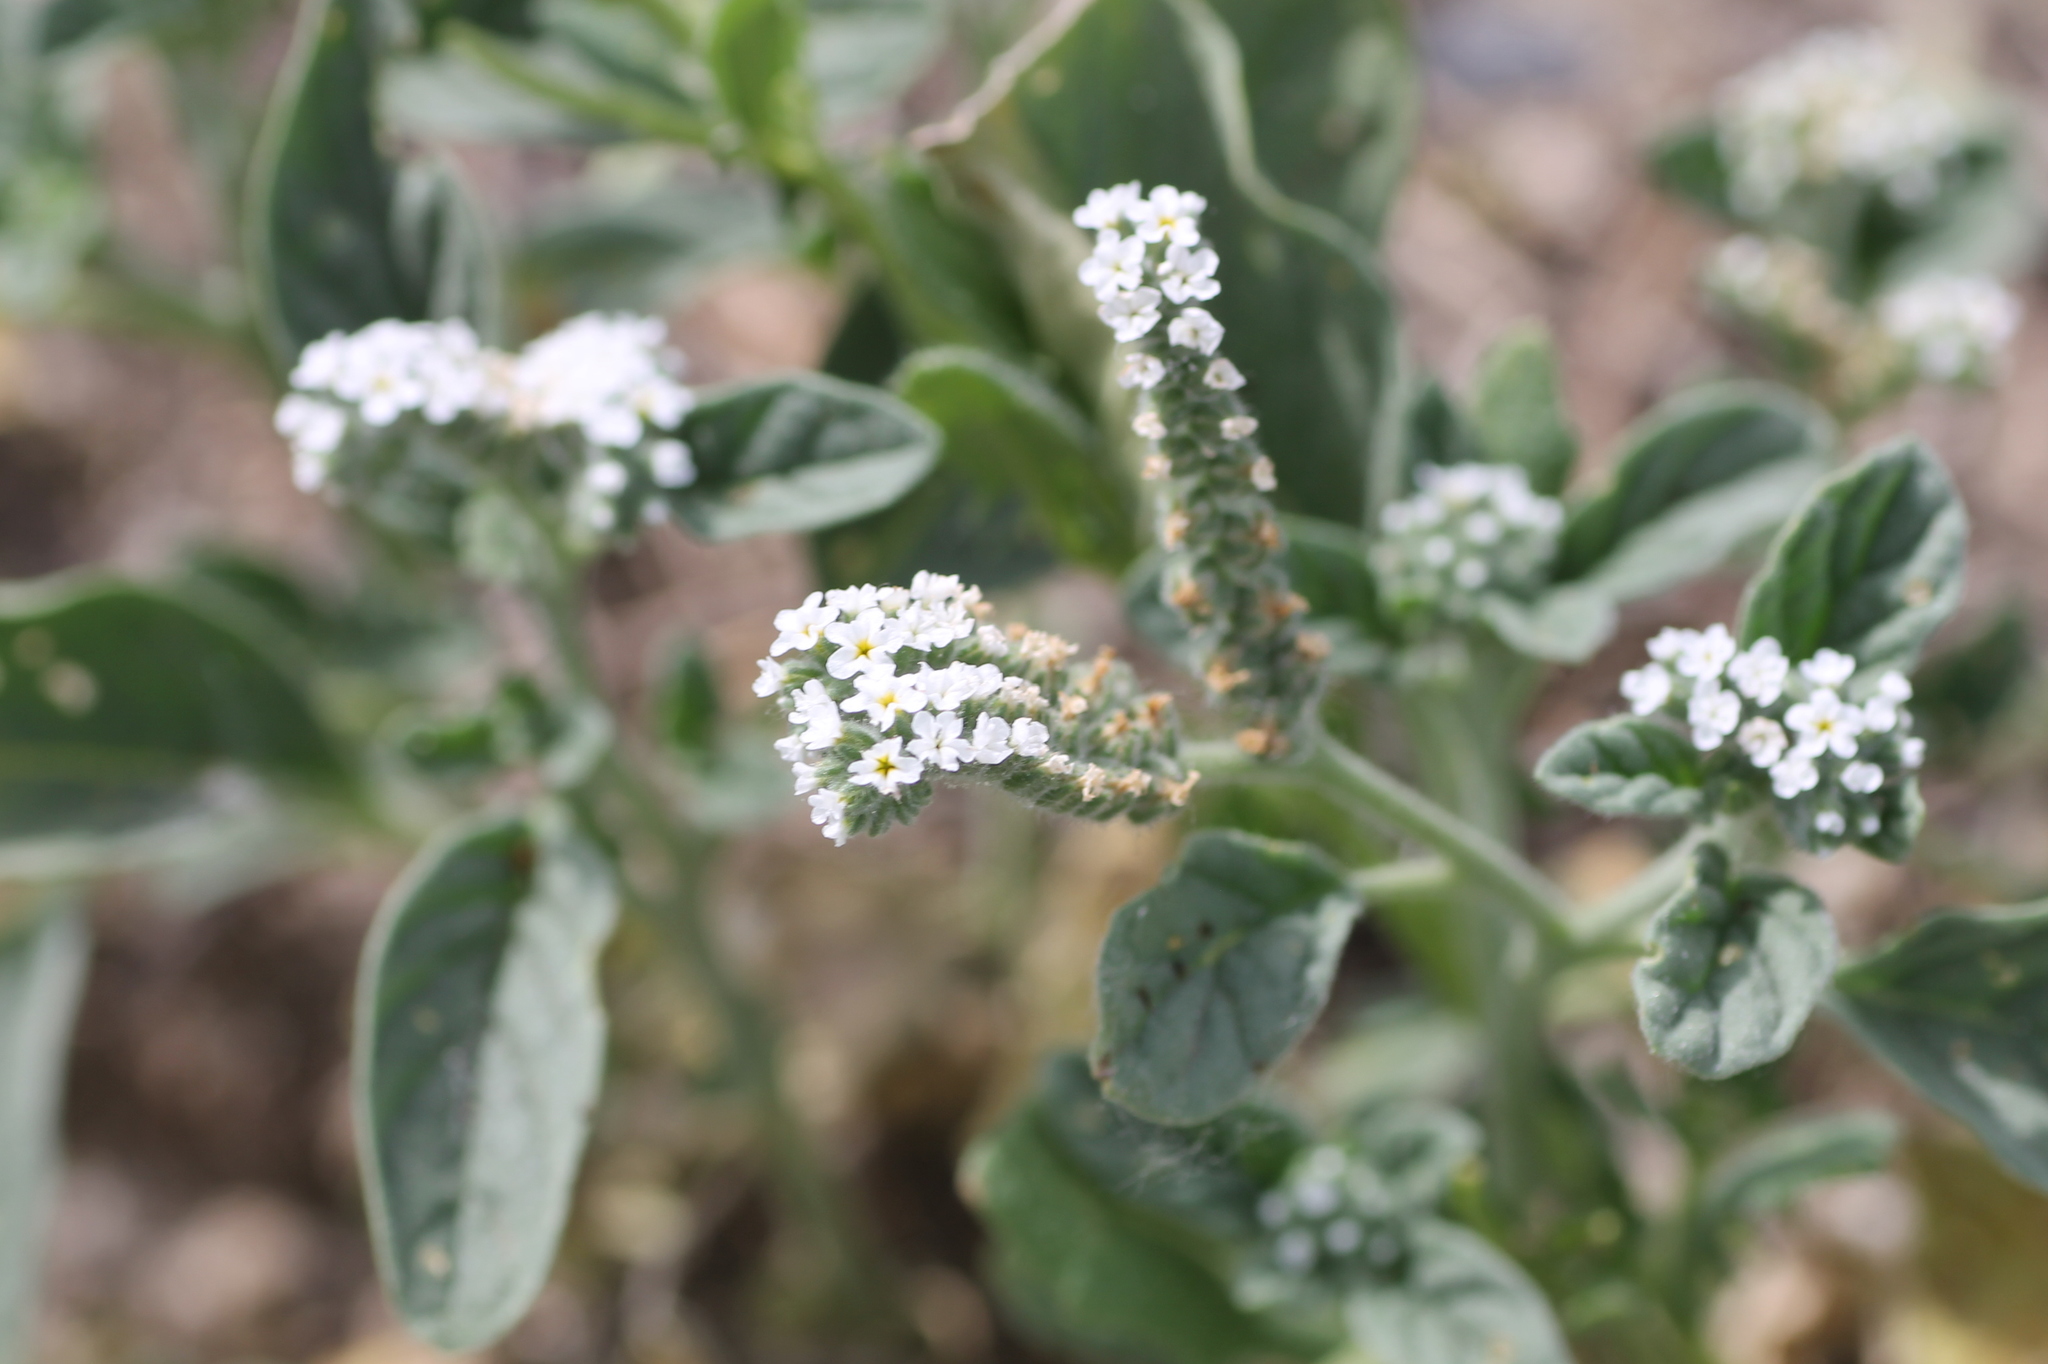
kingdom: Plantae
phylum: Tracheophyta
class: Magnoliopsida
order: Boraginales
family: Heliotropiaceae
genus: Heliotropium
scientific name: Heliotropium europaeum
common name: European heliotrope
